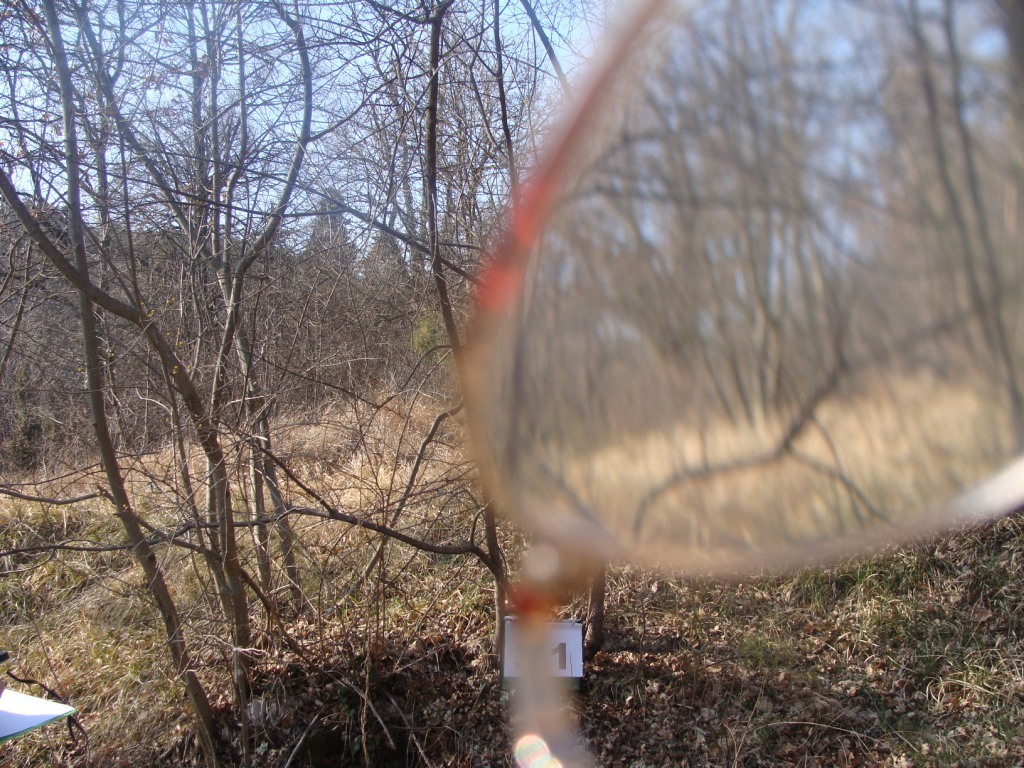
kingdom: Plantae
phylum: Tracheophyta
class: Magnoliopsida
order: Cornales
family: Cornaceae
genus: Cornus
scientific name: Cornus mas
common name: Cornelian-cherry
